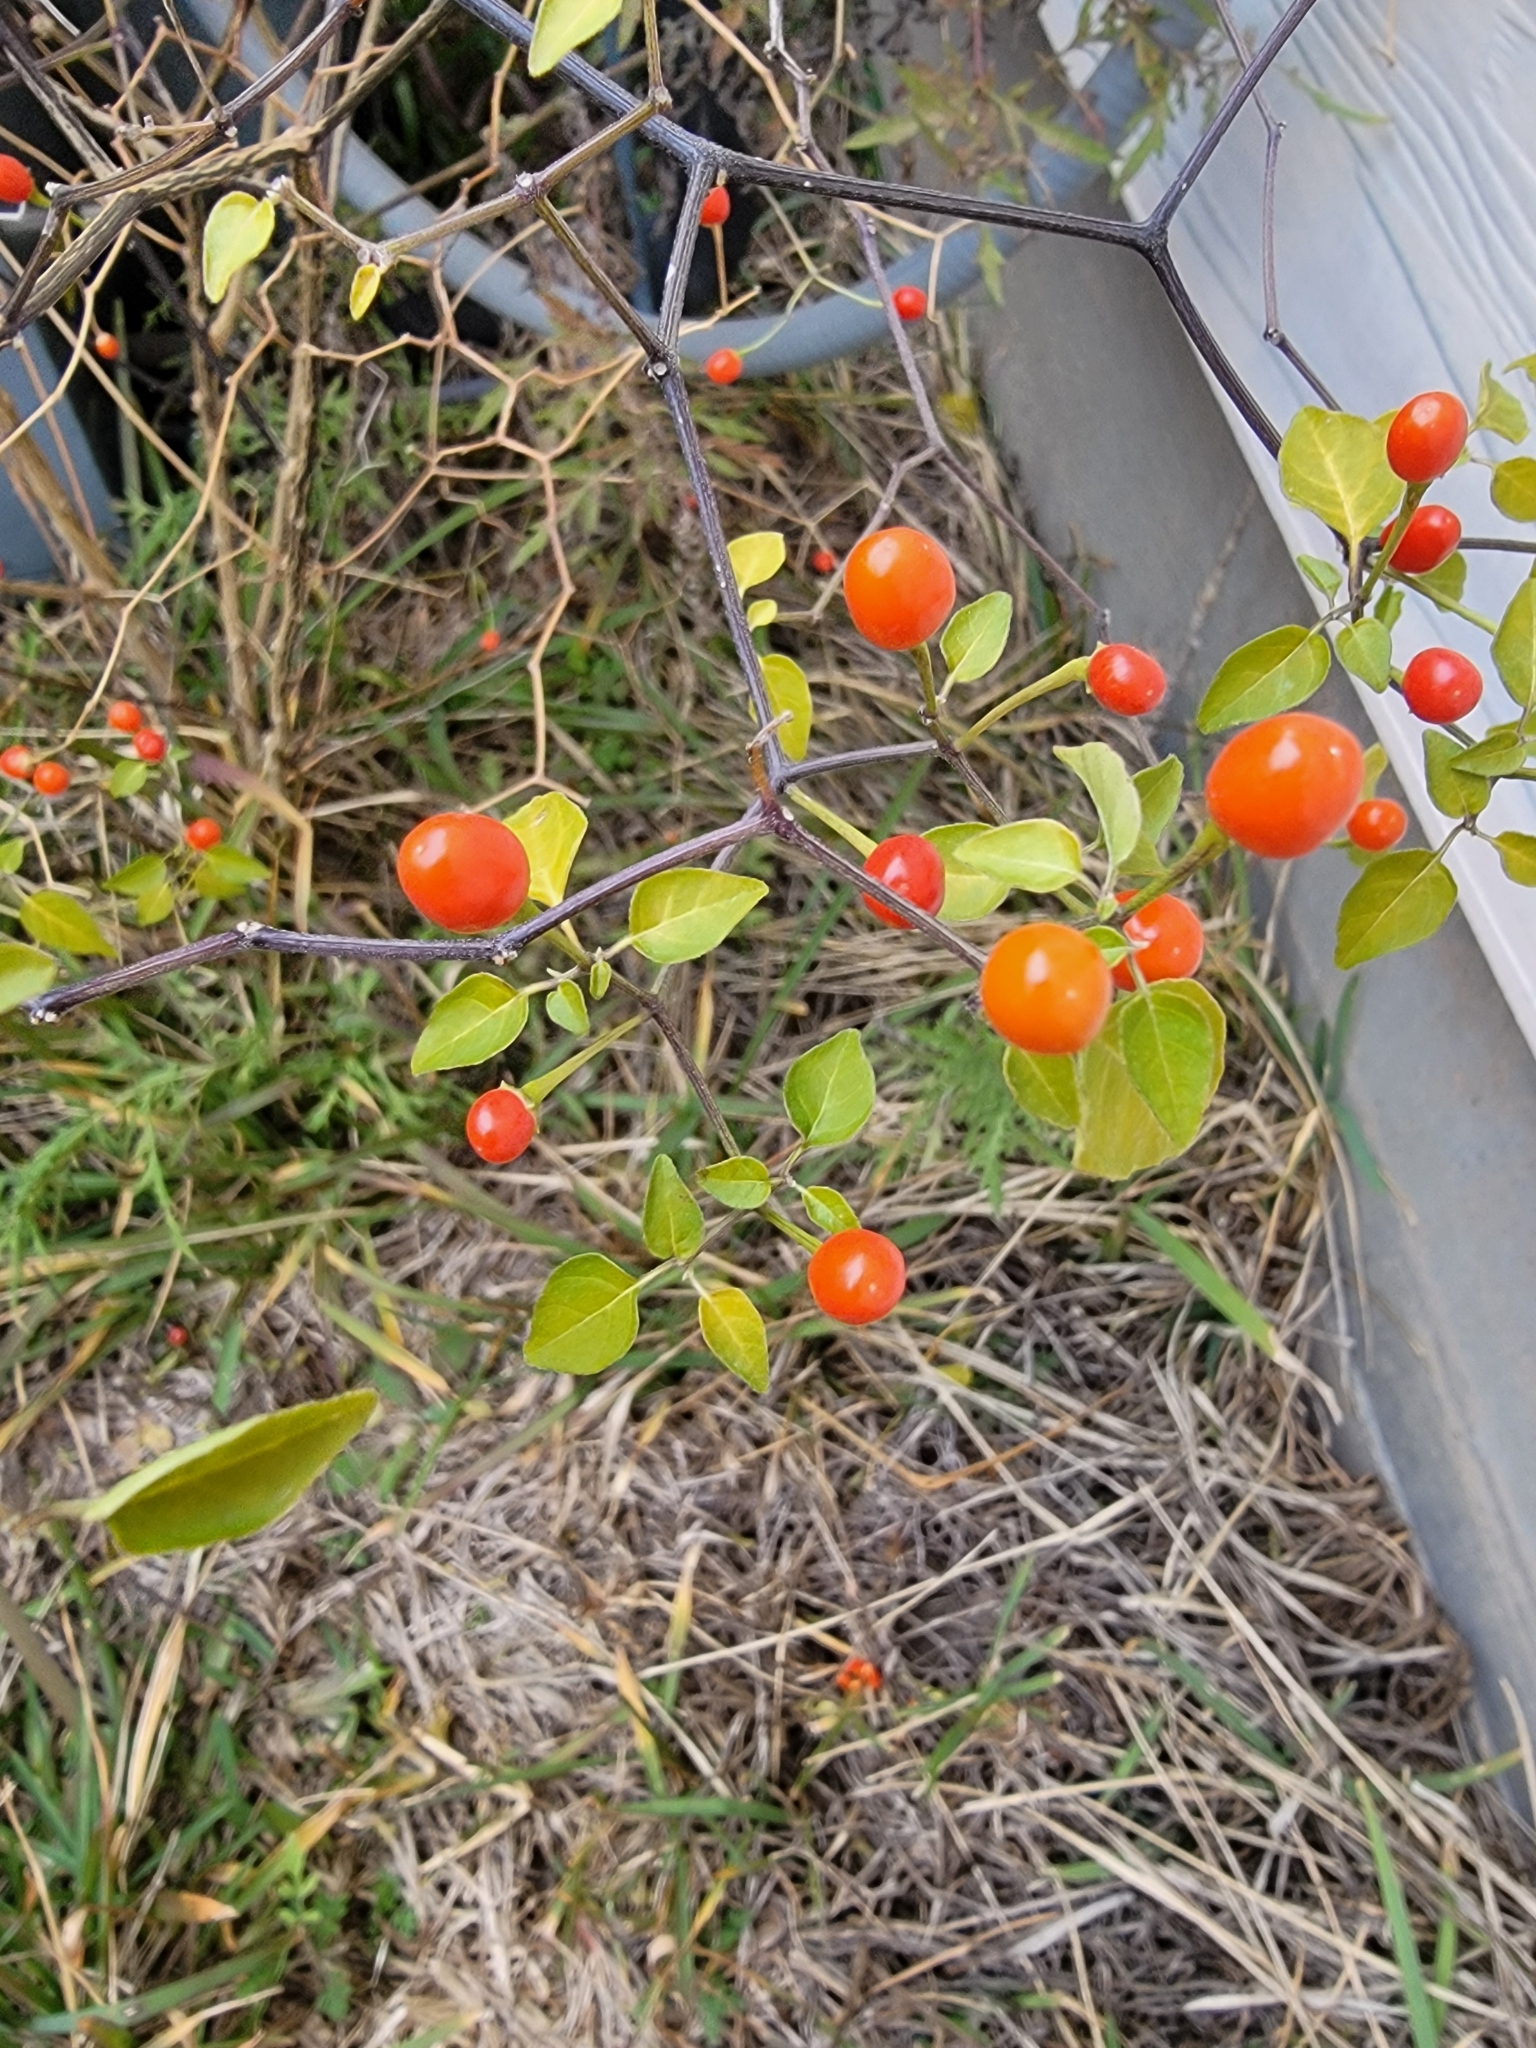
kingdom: Plantae
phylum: Tracheophyta
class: Magnoliopsida
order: Solanales
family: Solanaceae
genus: Capsicum
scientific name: Capsicum annuum
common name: Sweet pepper
